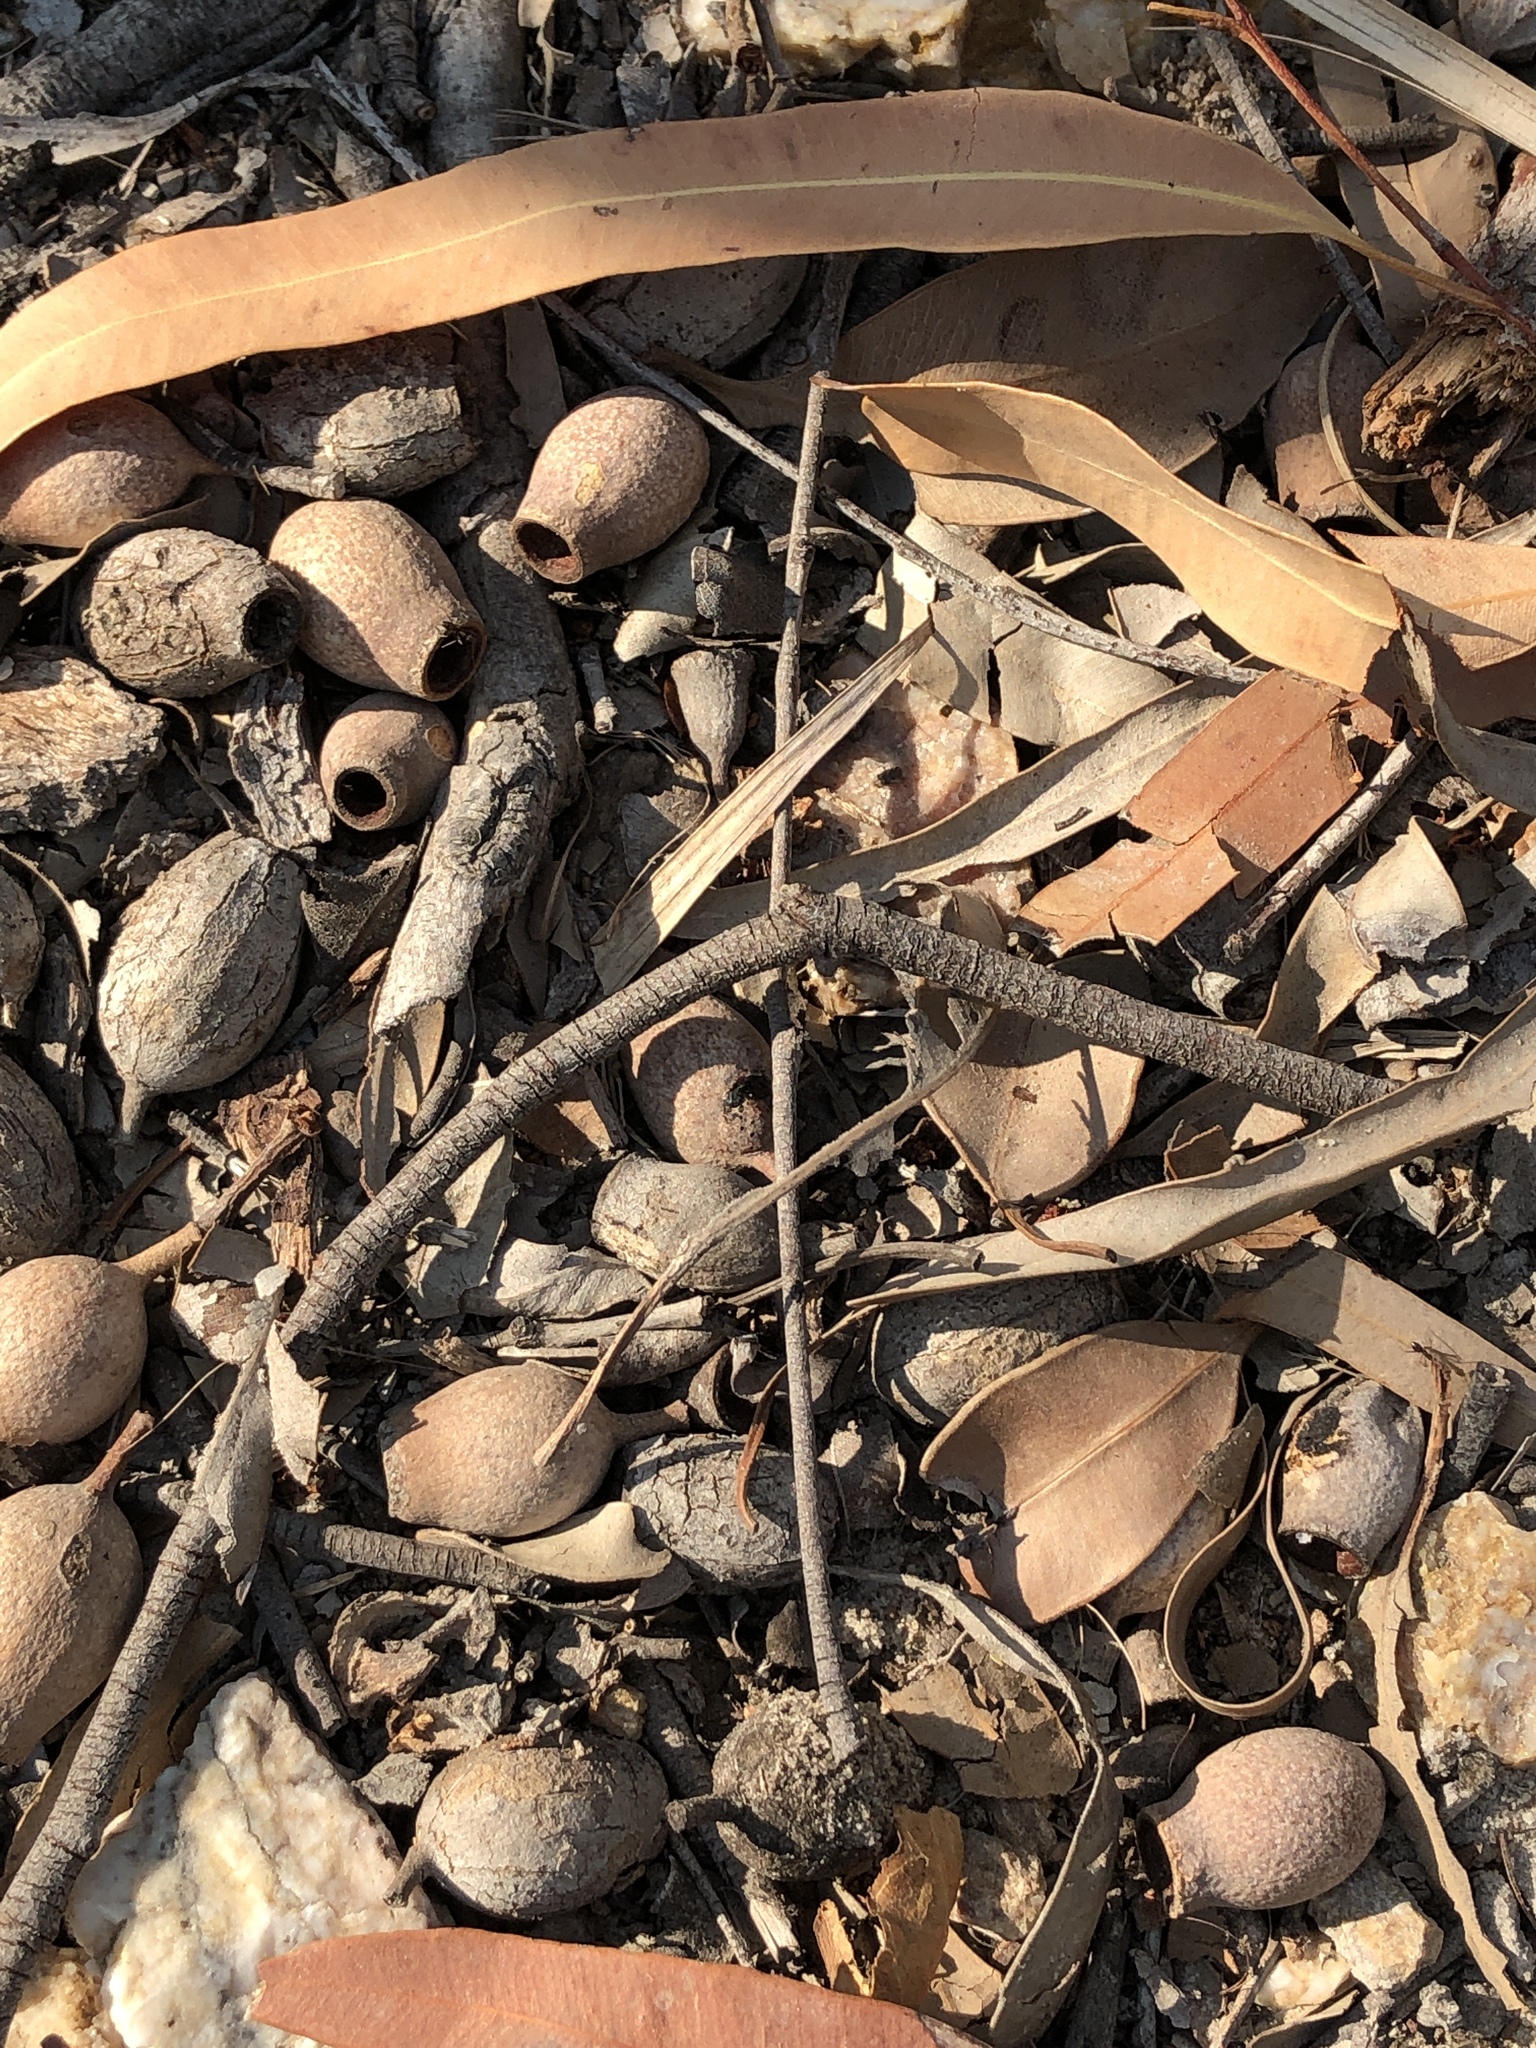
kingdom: Plantae
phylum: Tracheophyta
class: Magnoliopsida
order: Myrtales
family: Myrtaceae
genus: Corymbia
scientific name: Corymbia intermedia
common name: Pink-bloodwood
